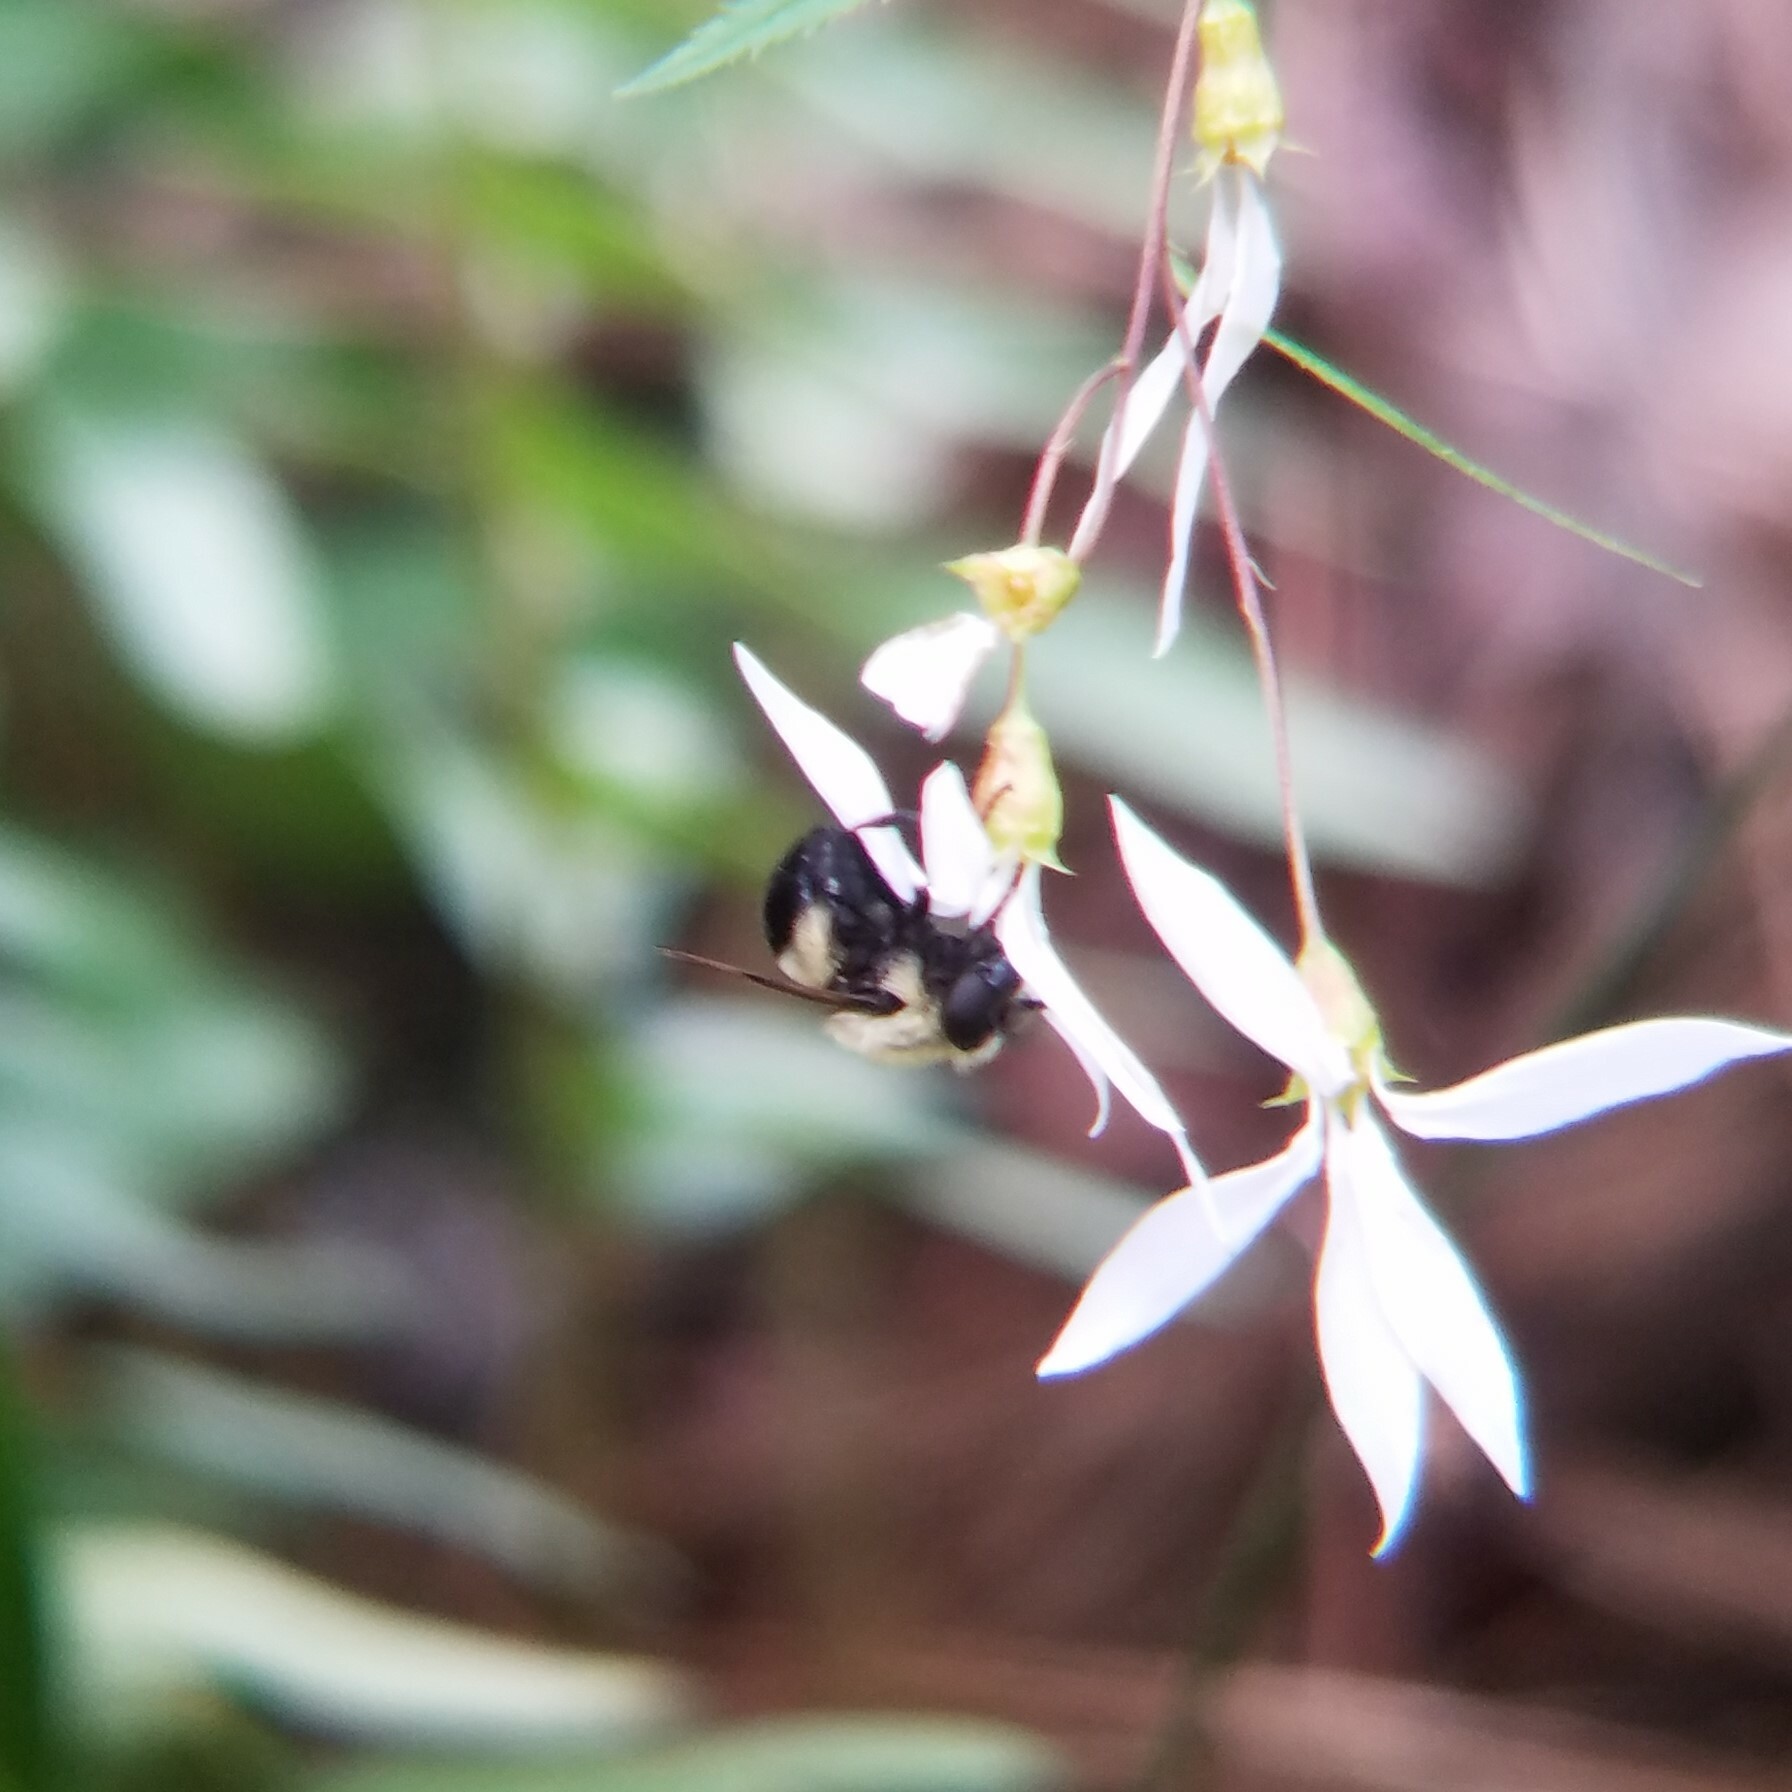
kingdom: Animalia
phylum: Arthropoda
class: Insecta
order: Diptera
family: Syrphidae
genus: Volucella
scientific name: Volucella evecta
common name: Eastern swiftwing
